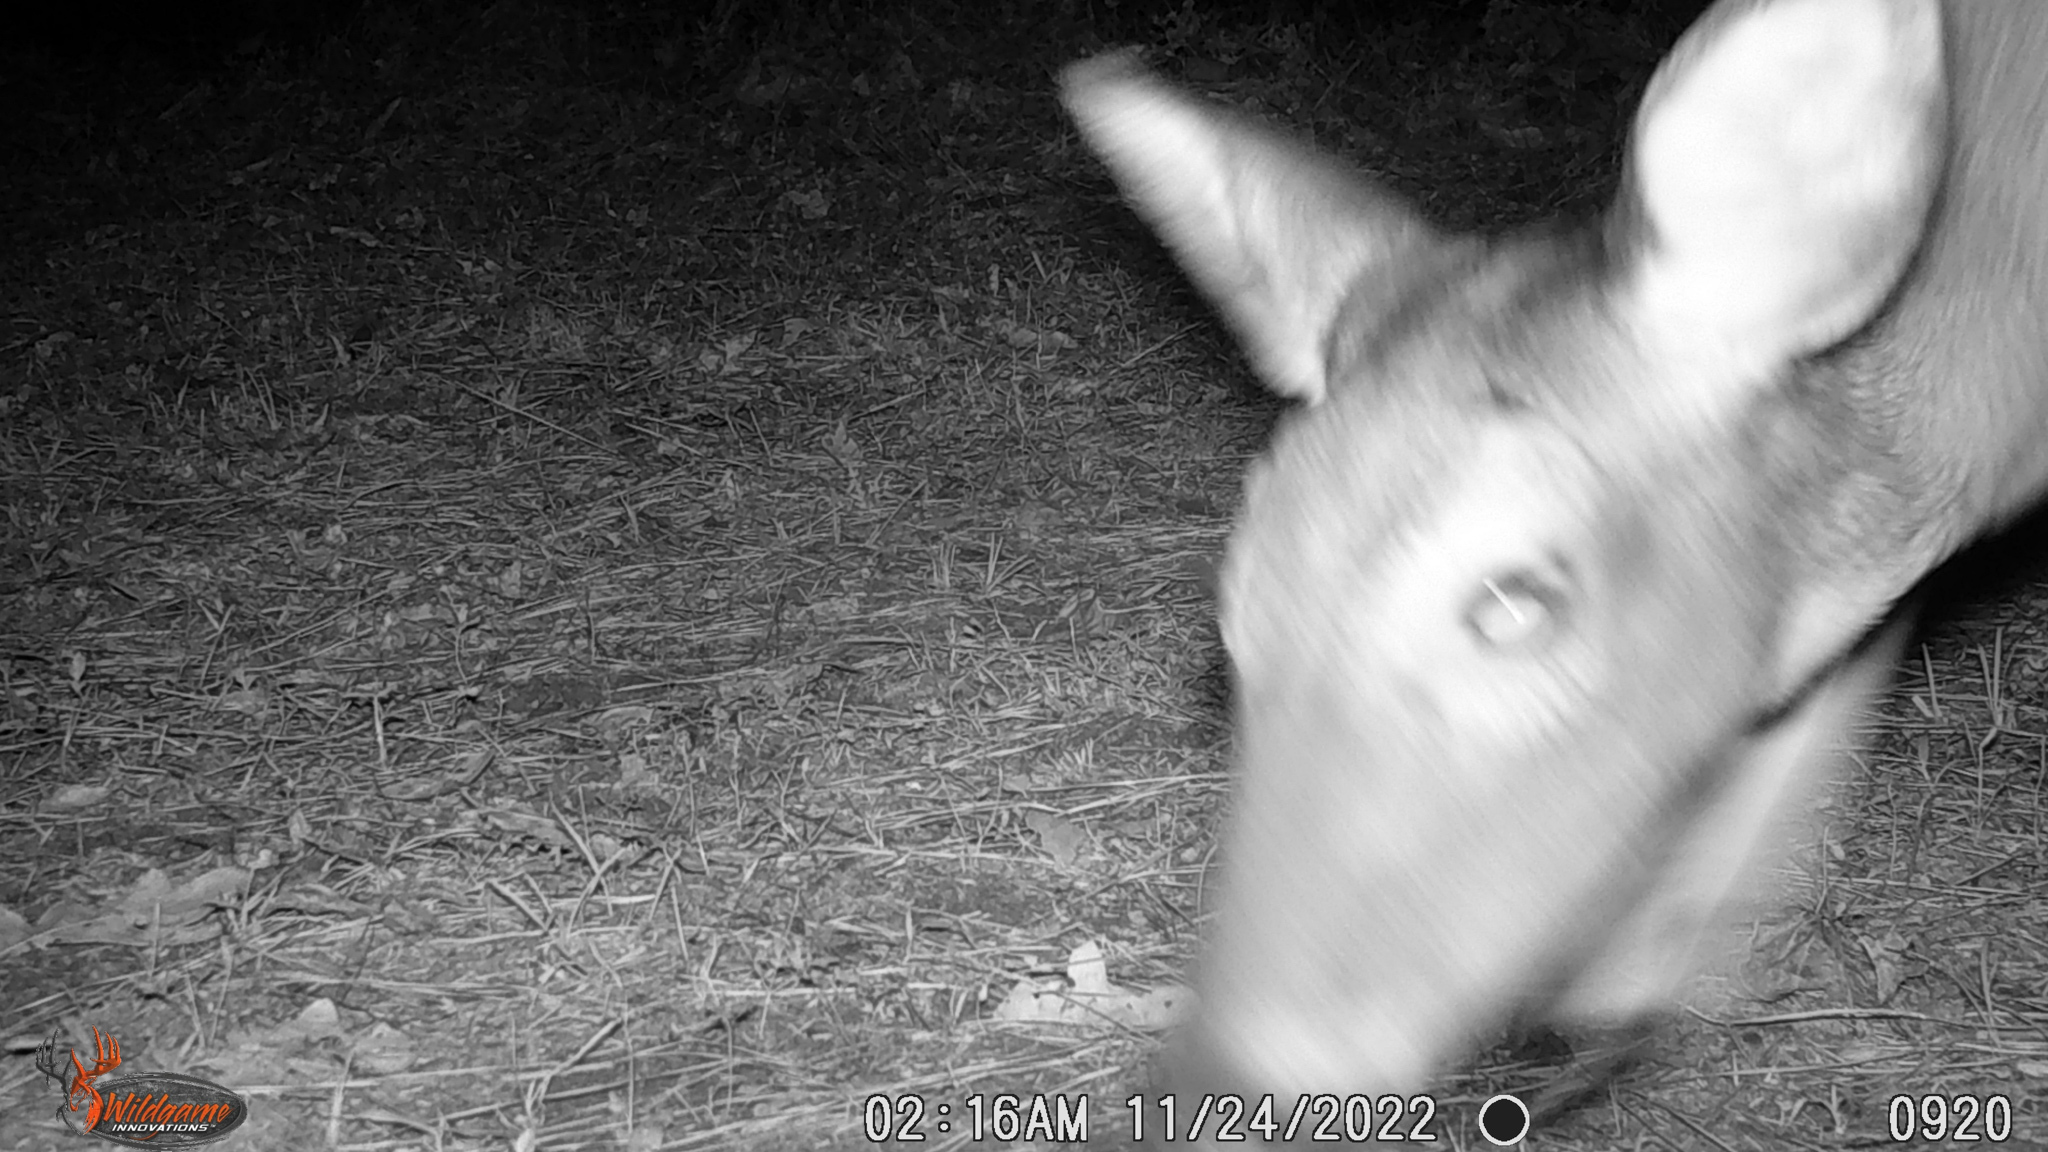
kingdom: Animalia
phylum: Chordata
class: Mammalia
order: Artiodactyla
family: Cervidae
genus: Odocoileus
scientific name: Odocoileus virginianus
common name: White-tailed deer
